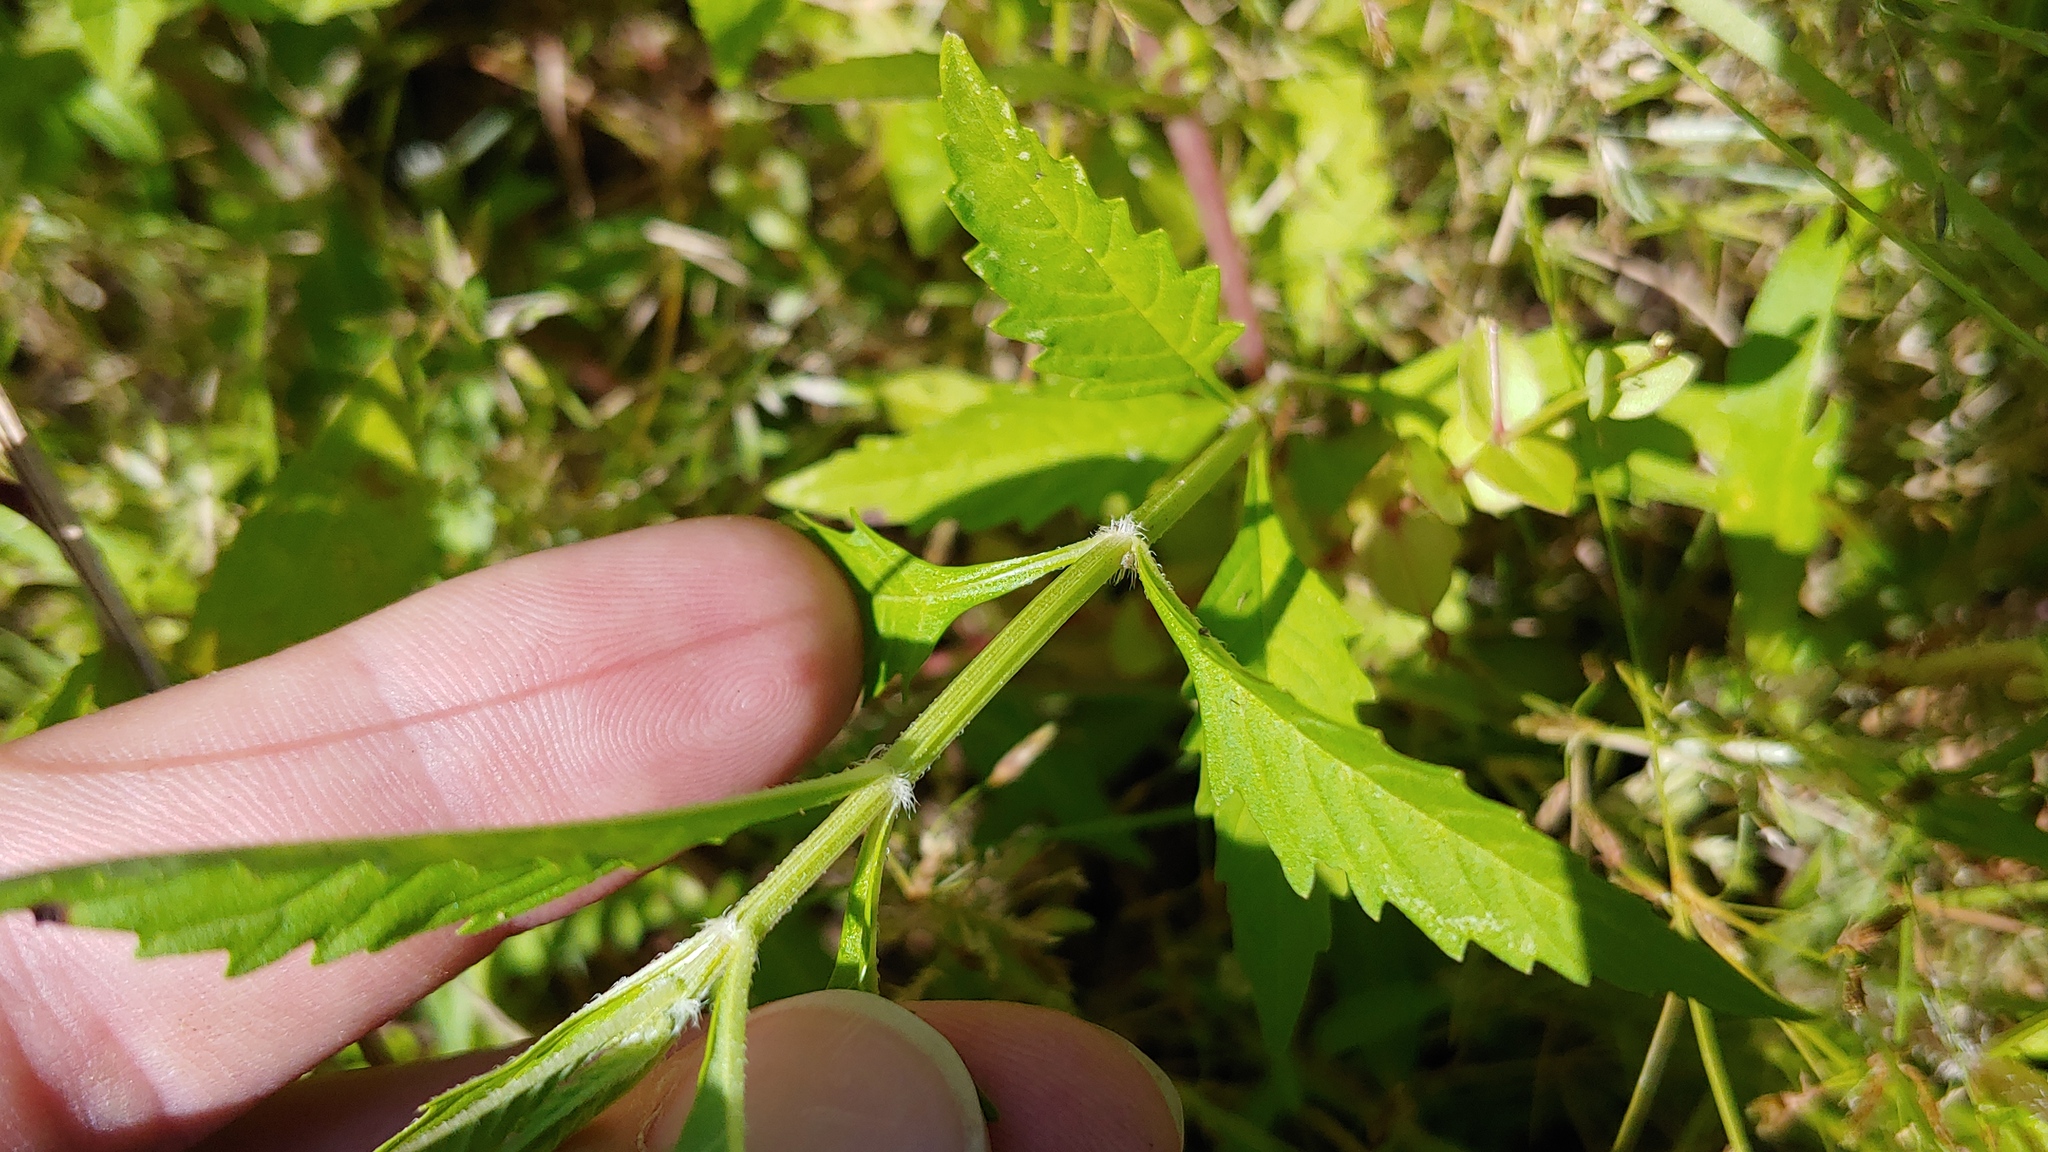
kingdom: Plantae
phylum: Tracheophyta
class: Magnoliopsida
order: Lamiales
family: Lamiaceae
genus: Lycopus
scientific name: Lycopus americanus
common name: American bugleweed
